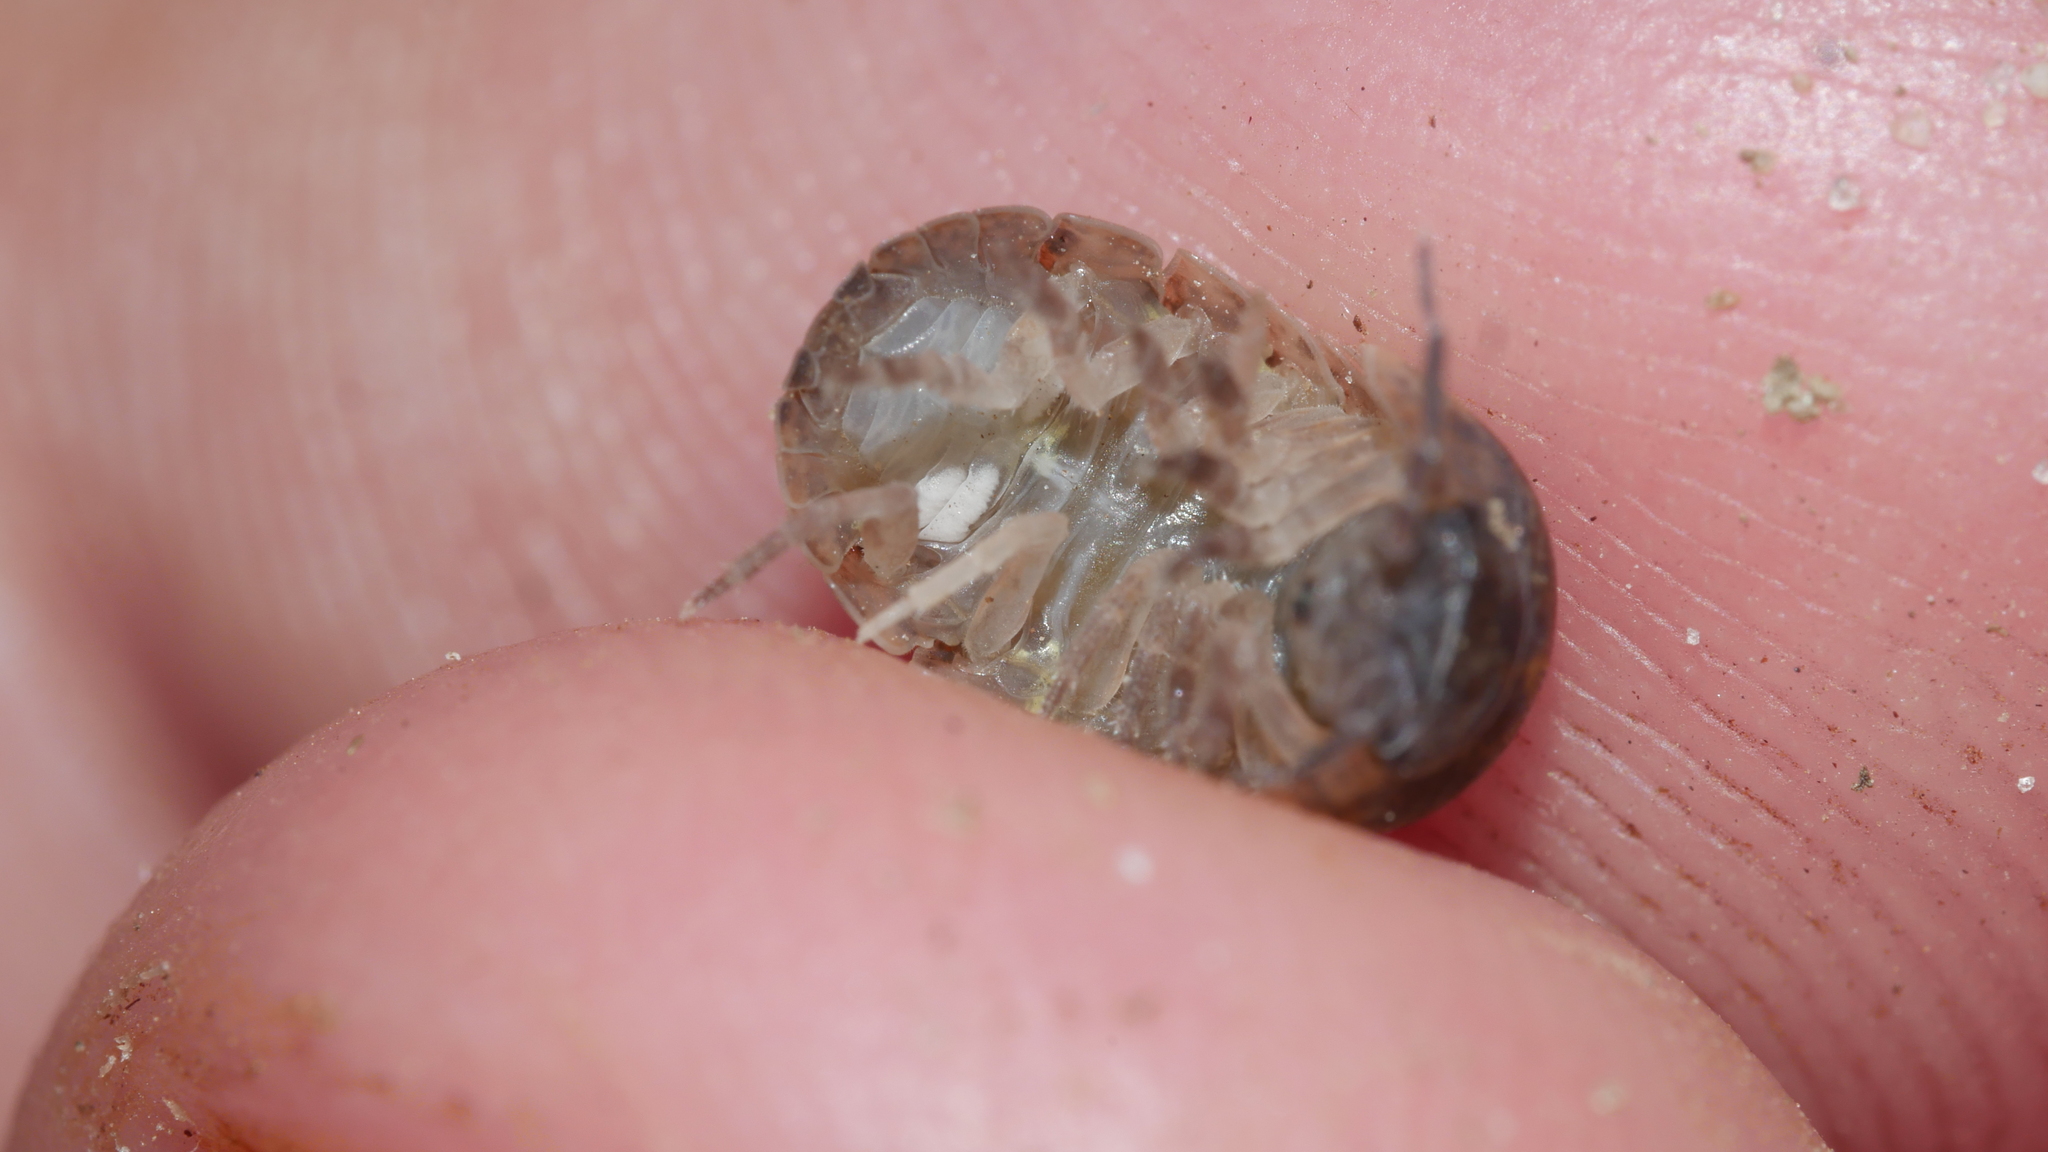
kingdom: Animalia
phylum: Arthropoda
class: Malacostraca
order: Isopoda
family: Armadillidiidae
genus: Armadillidium
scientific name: Armadillidium vulgare
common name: Common pill woodlouse
